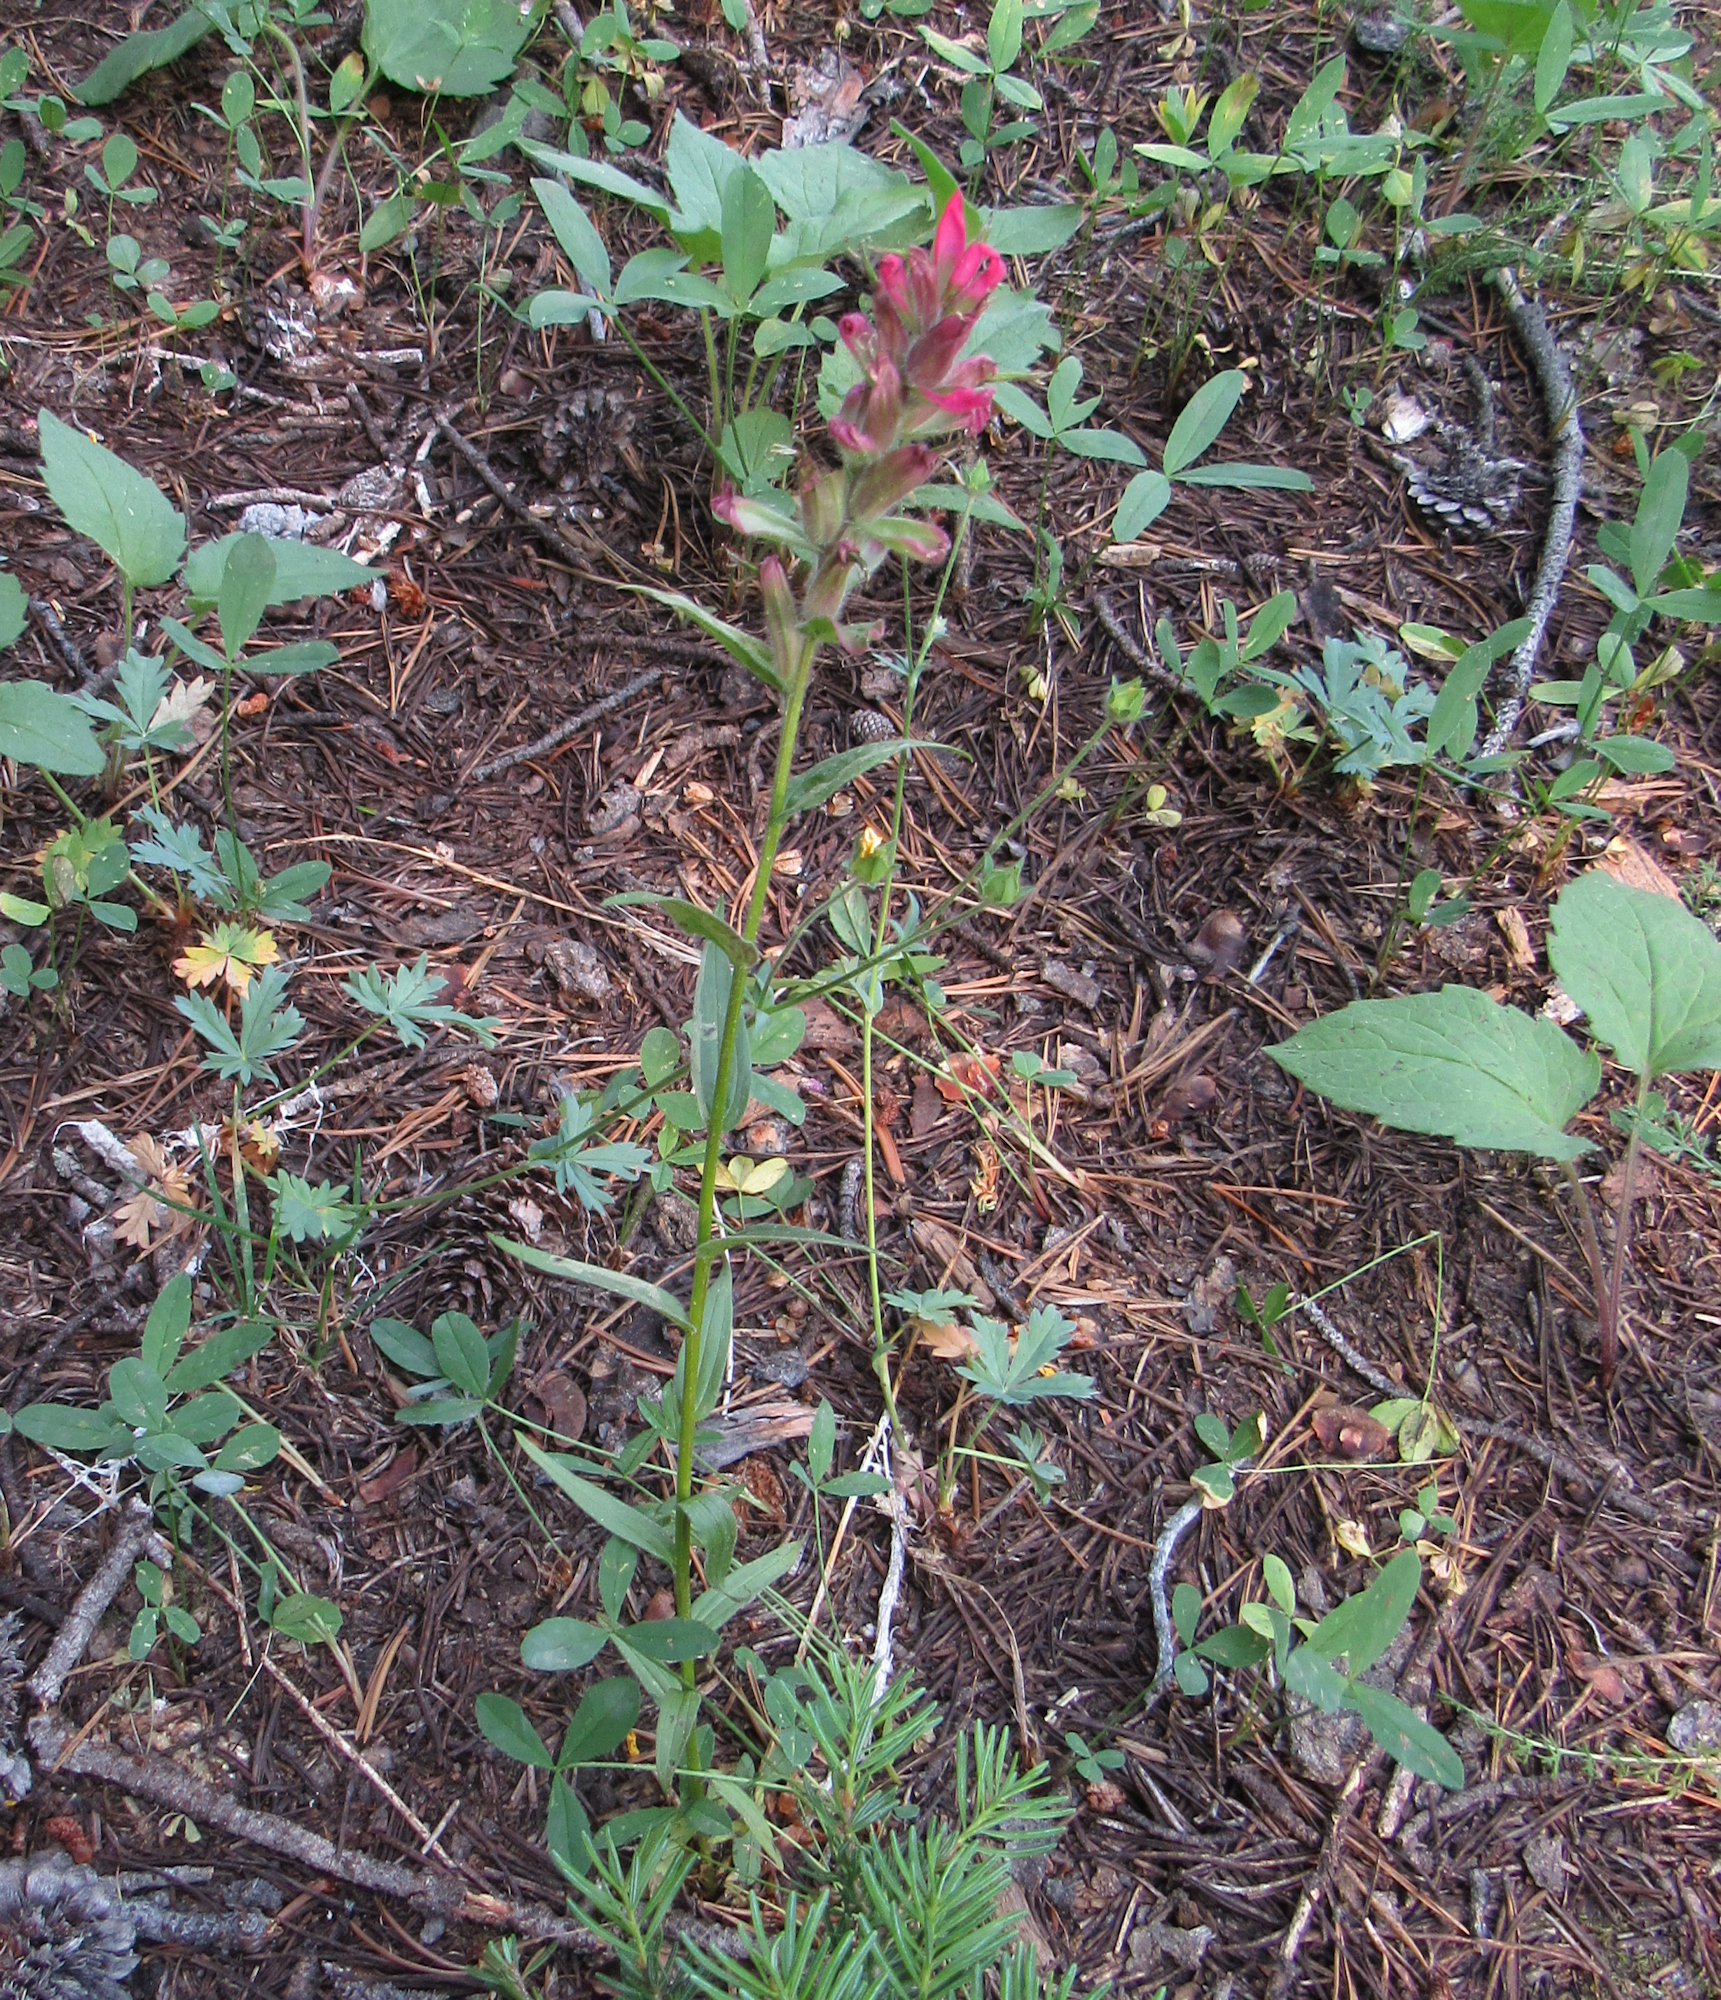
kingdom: Plantae
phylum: Tracheophyta
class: Magnoliopsida
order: Lamiales
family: Orobanchaceae
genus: Castilleja
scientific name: Castilleja rhexifolia
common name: Rocky mountain paintbrush
